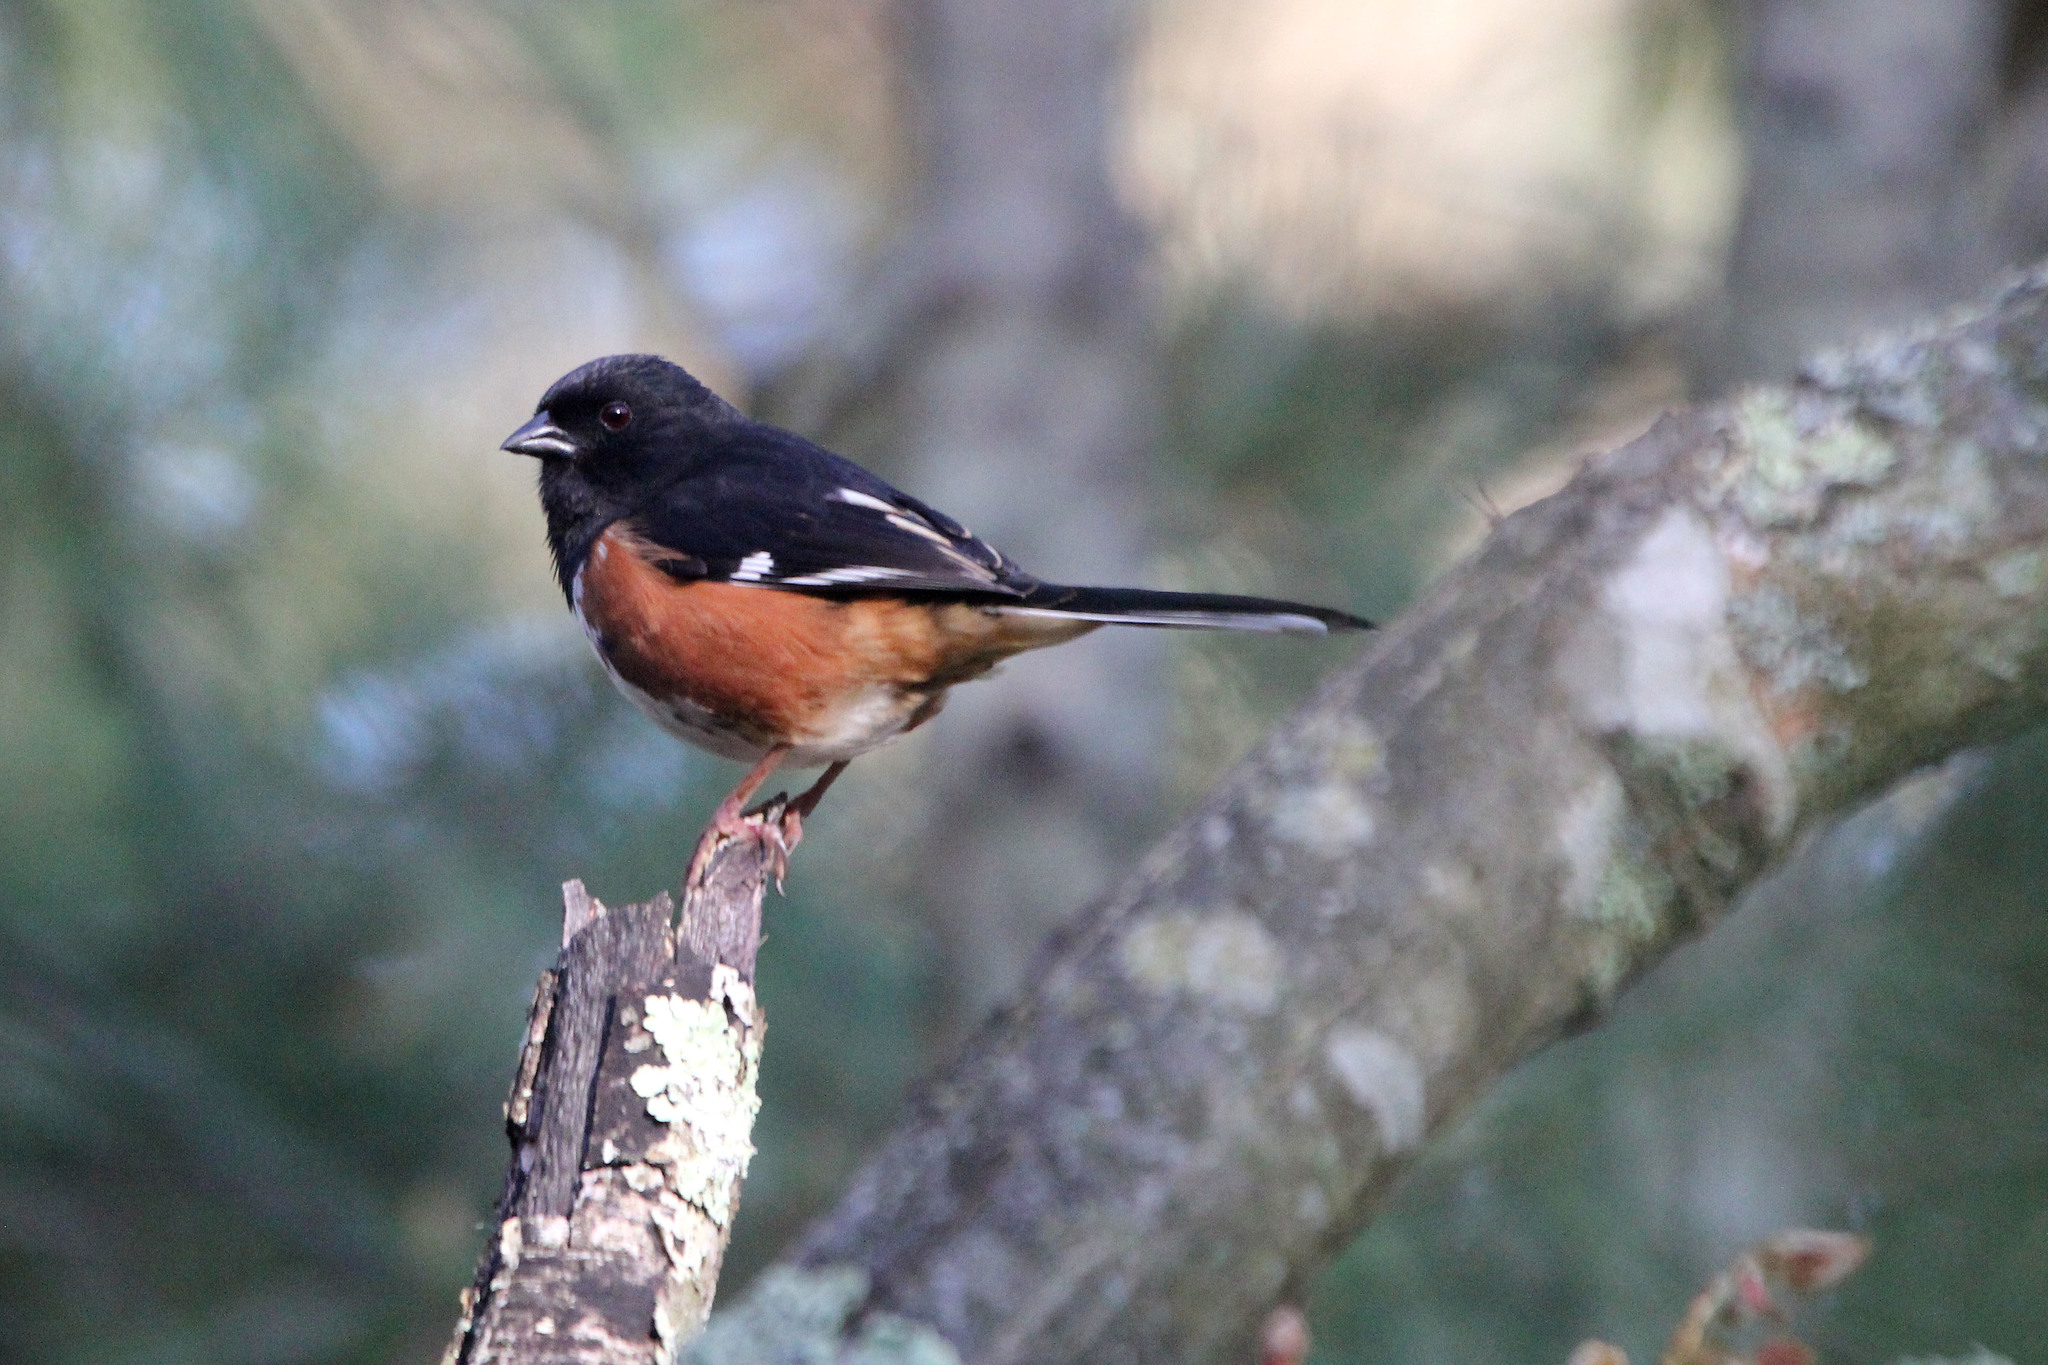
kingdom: Animalia
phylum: Chordata
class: Aves
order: Passeriformes
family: Passerellidae
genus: Pipilo
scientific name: Pipilo erythrophthalmus
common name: Eastern towhee
